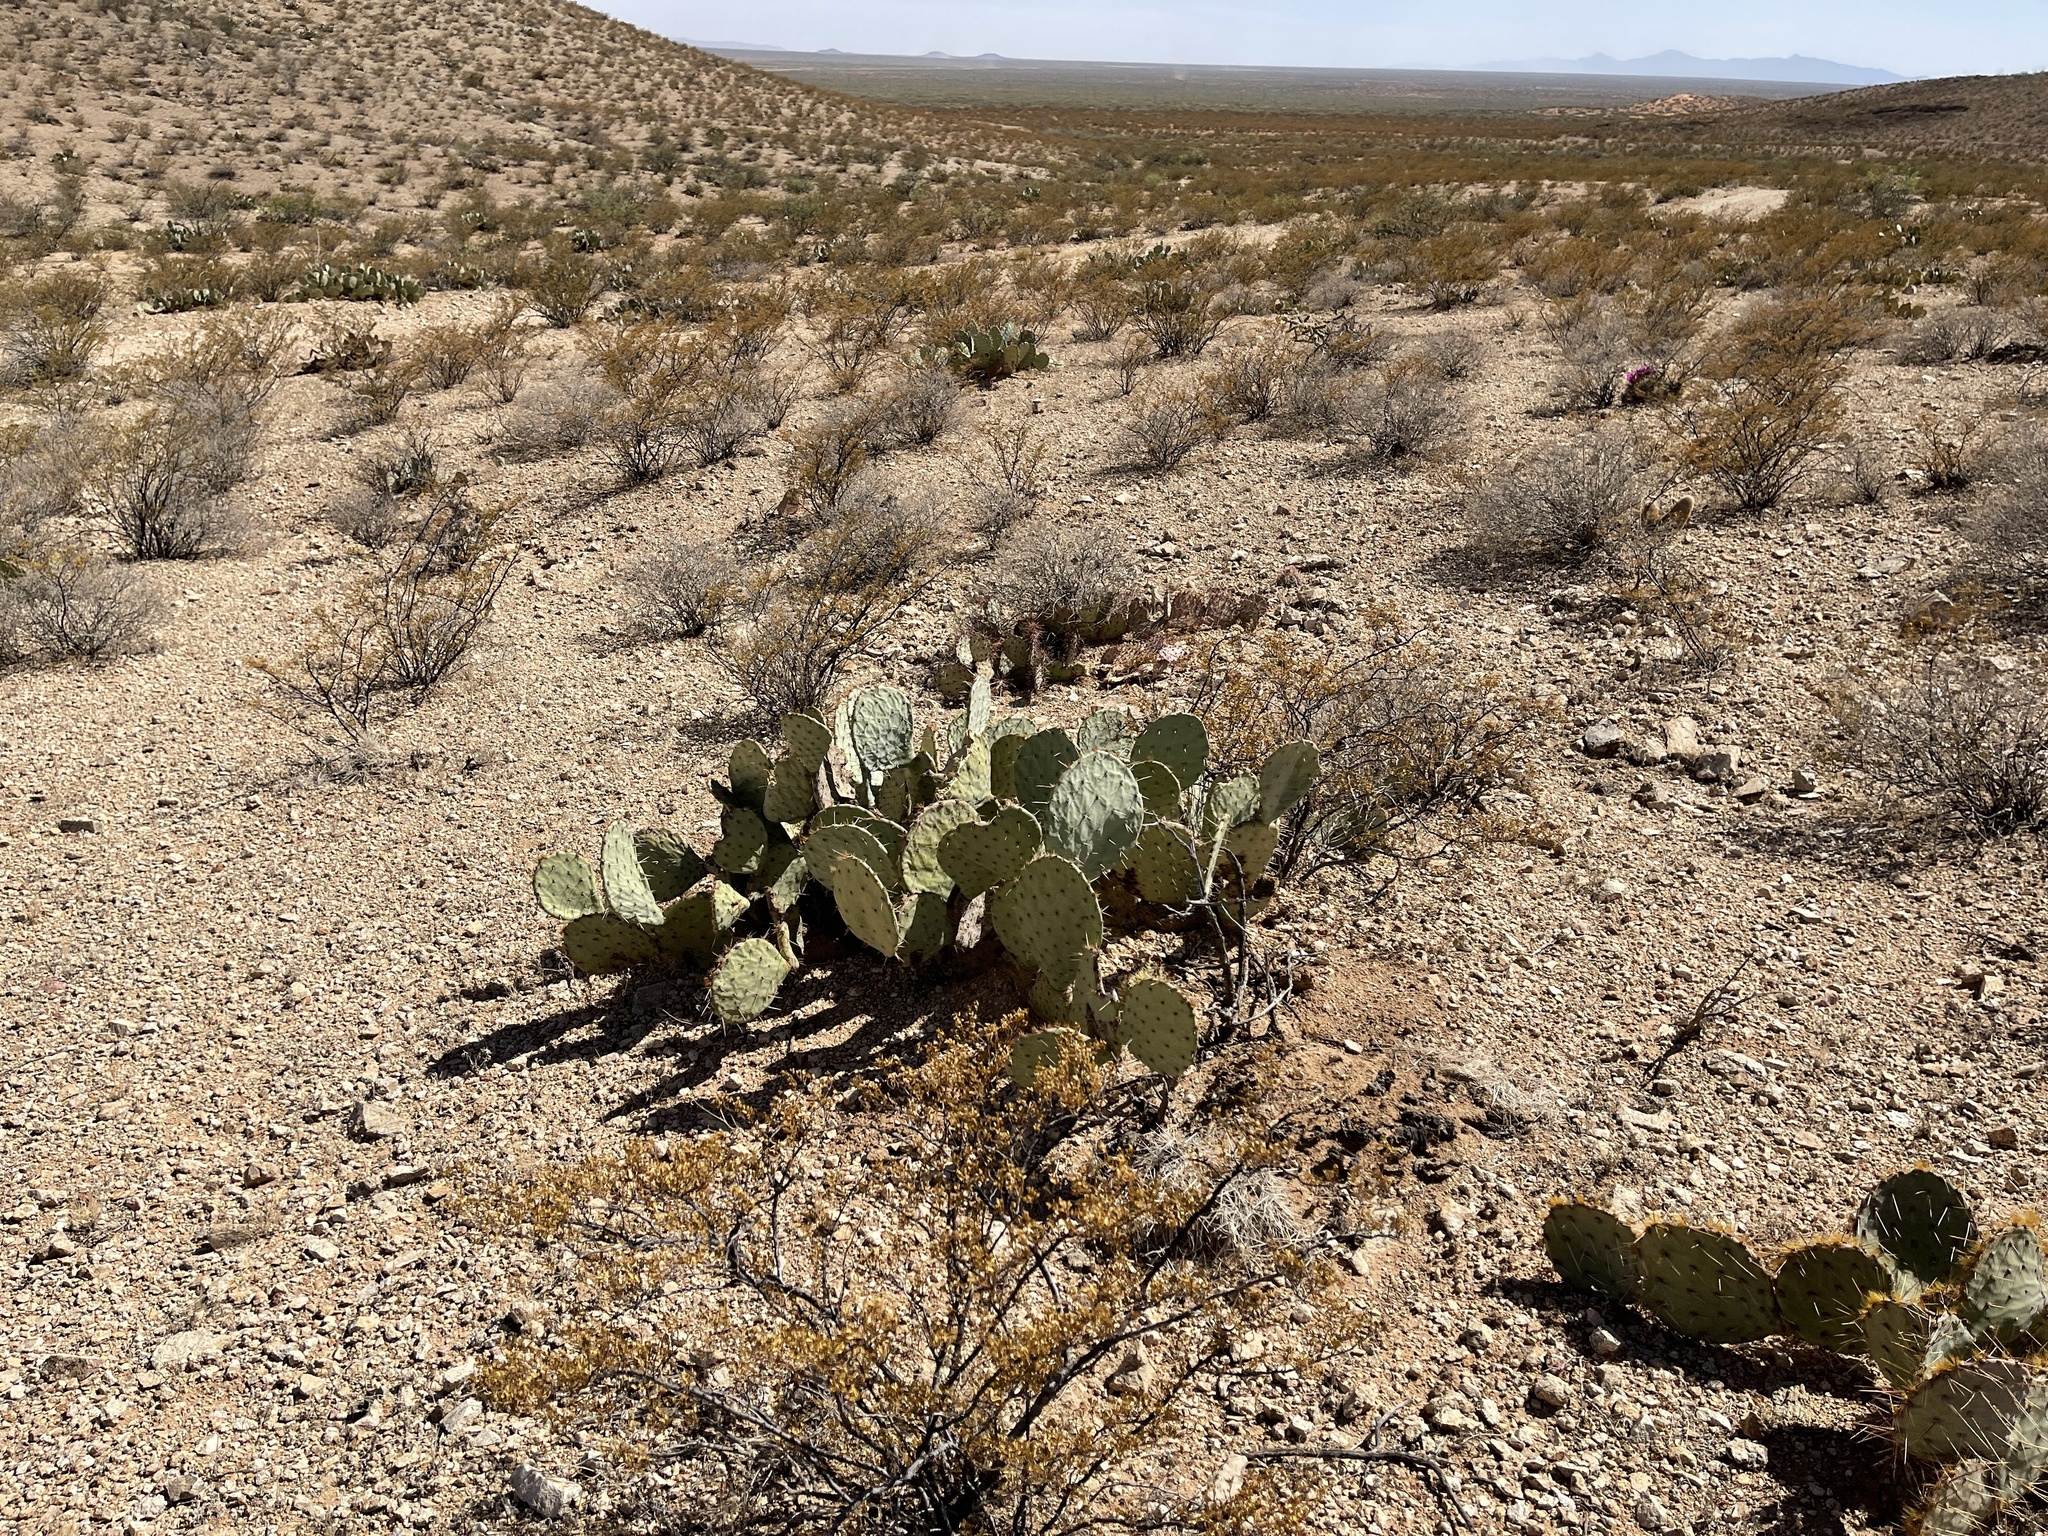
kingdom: Plantae
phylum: Tracheophyta
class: Magnoliopsida
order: Caryophyllales
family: Cactaceae
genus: Opuntia
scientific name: Opuntia engelmannii
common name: Cactus-apple
